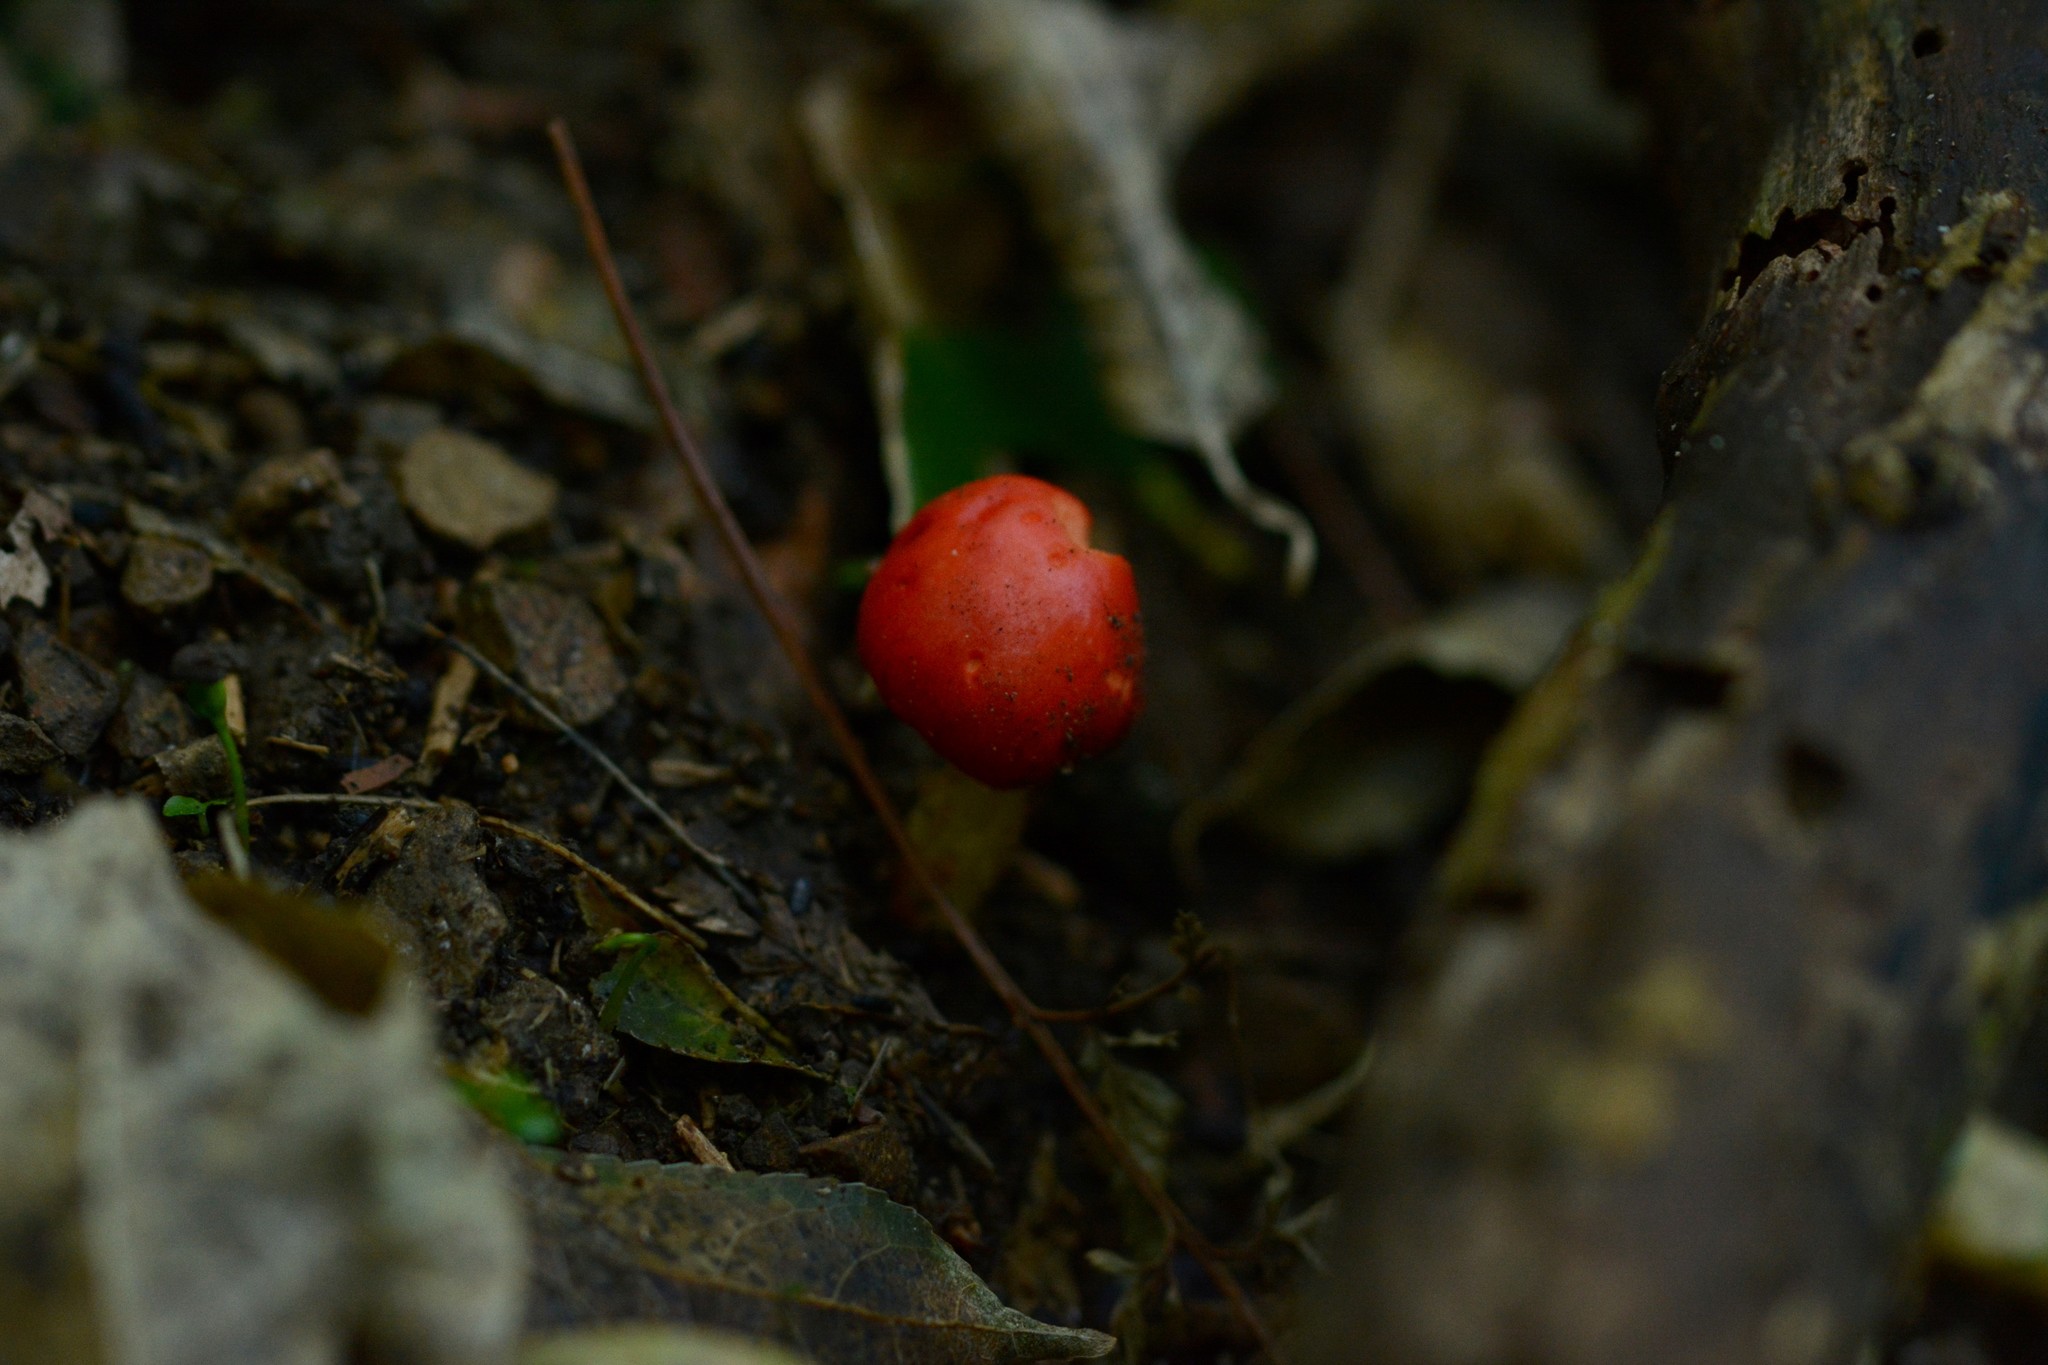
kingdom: Fungi
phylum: Basidiomycota
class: Agaricomycetes
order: Agaricales
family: Strophariaceae
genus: Leratiomyces
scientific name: Leratiomyces erythrocephalus
